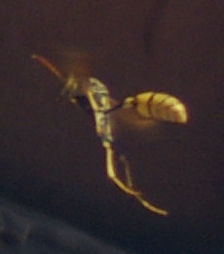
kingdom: Animalia
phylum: Arthropoda
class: Insecta
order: Hymenoptera
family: Vespidae
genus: Mischocyttarus
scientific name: Mischocyttarus flavitarsis
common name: Wasp
